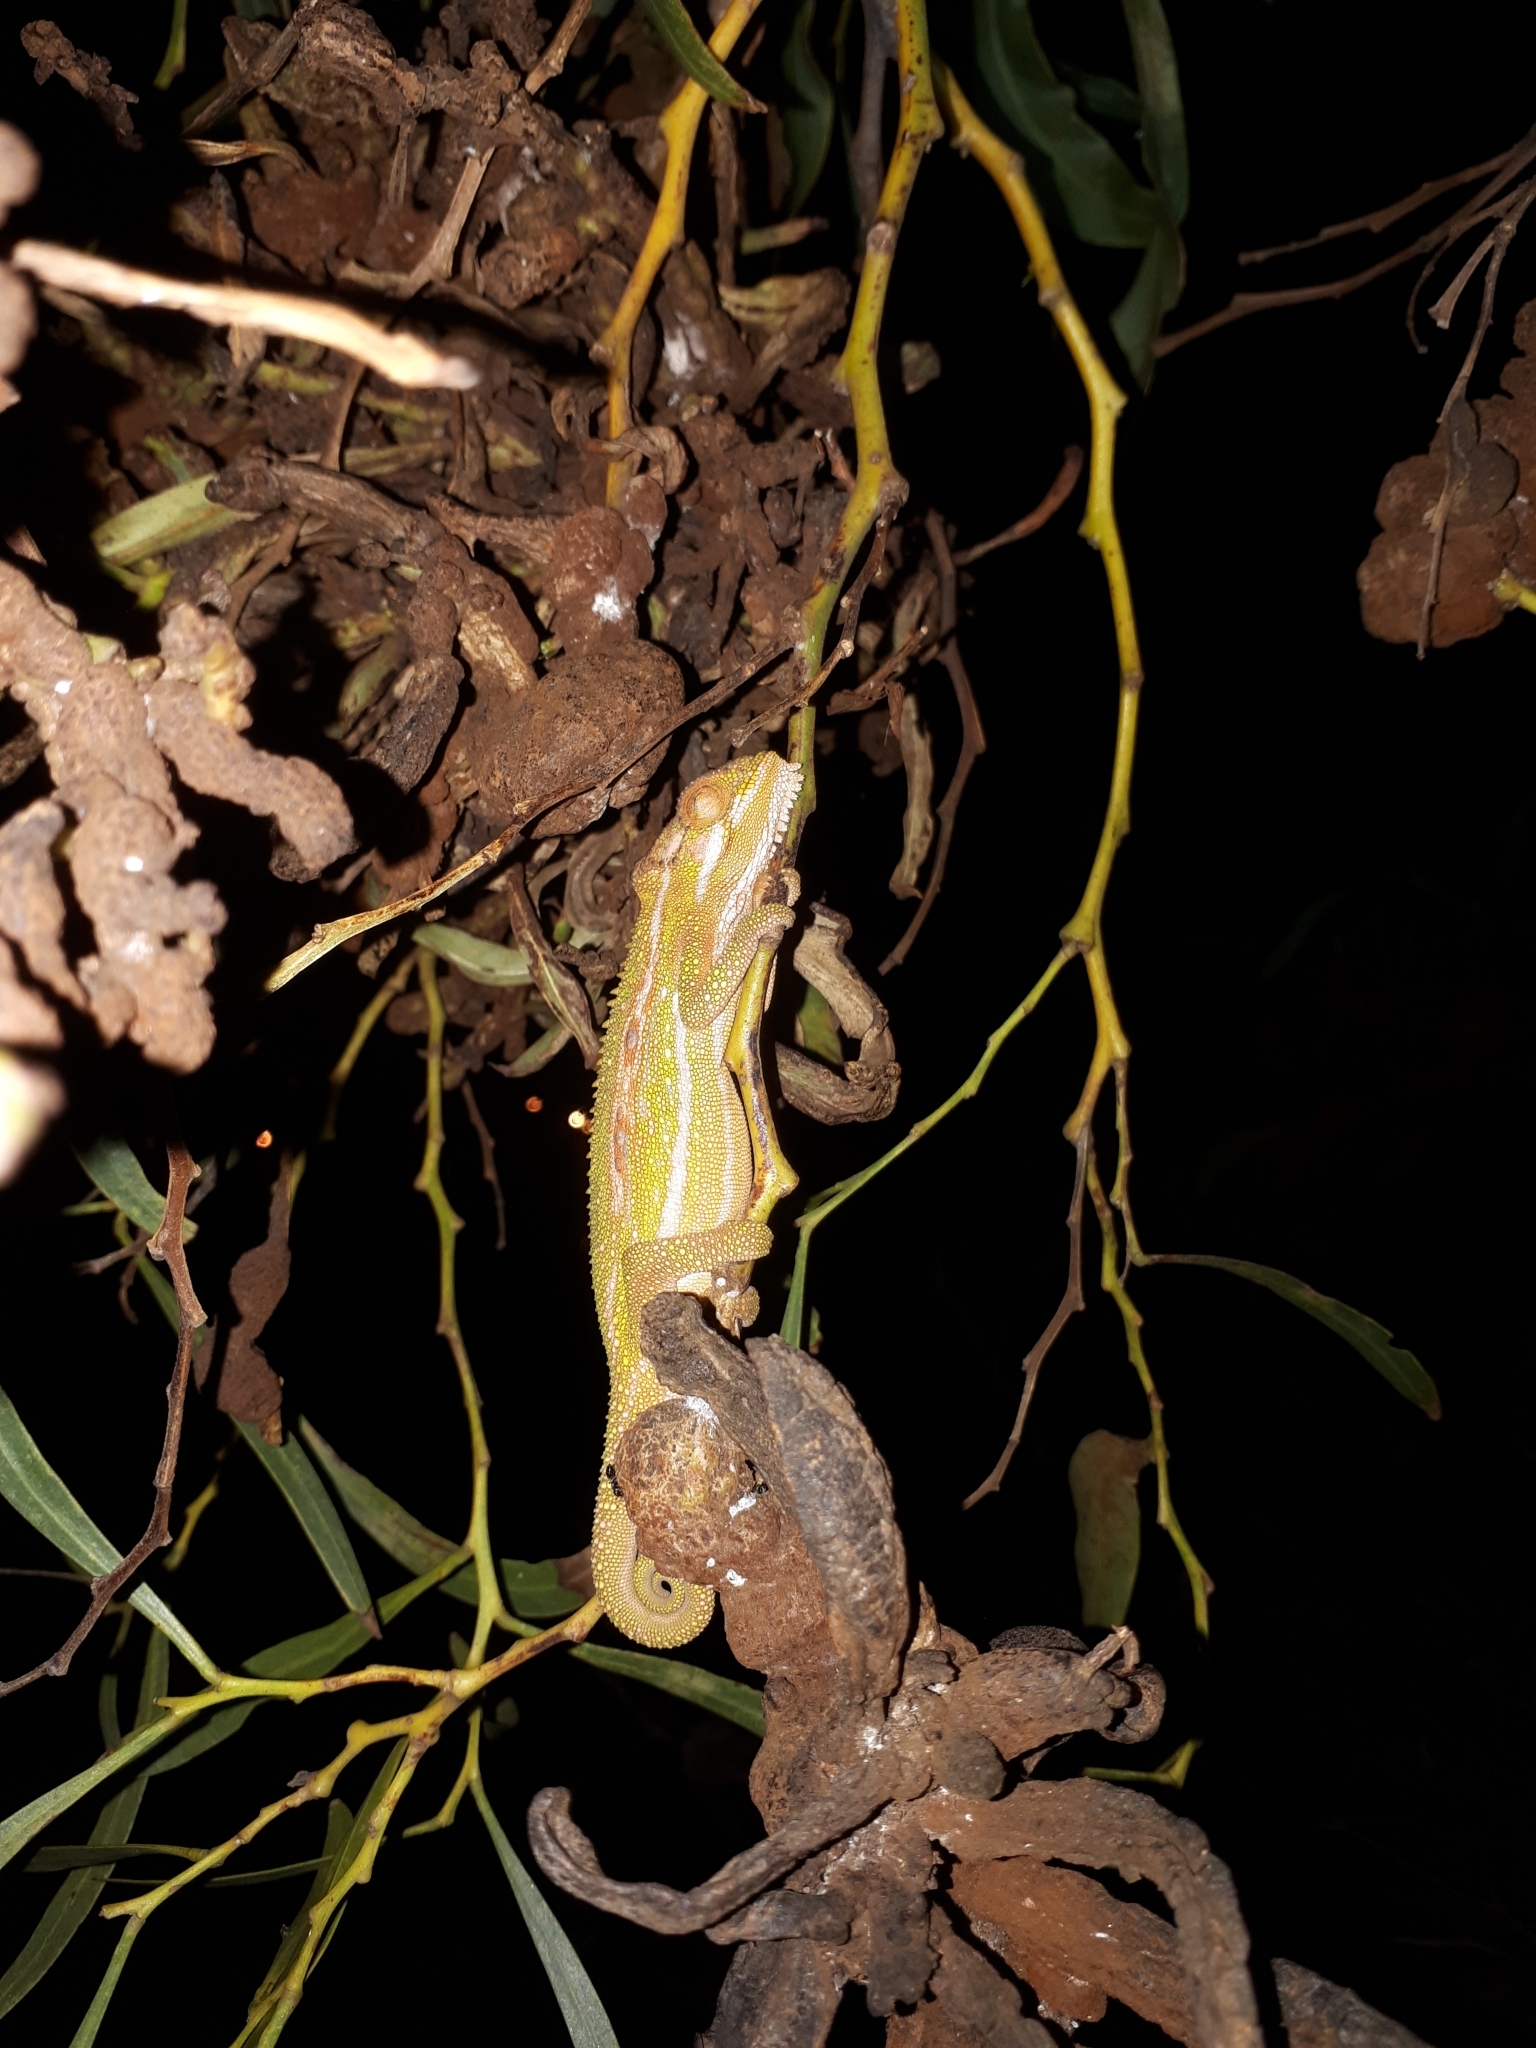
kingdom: Animalia
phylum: Chordata
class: Squamata
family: Chamaeleonidae
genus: Bradypodion
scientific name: Bradypodion pumilum
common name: Cape dwarf chameleon
